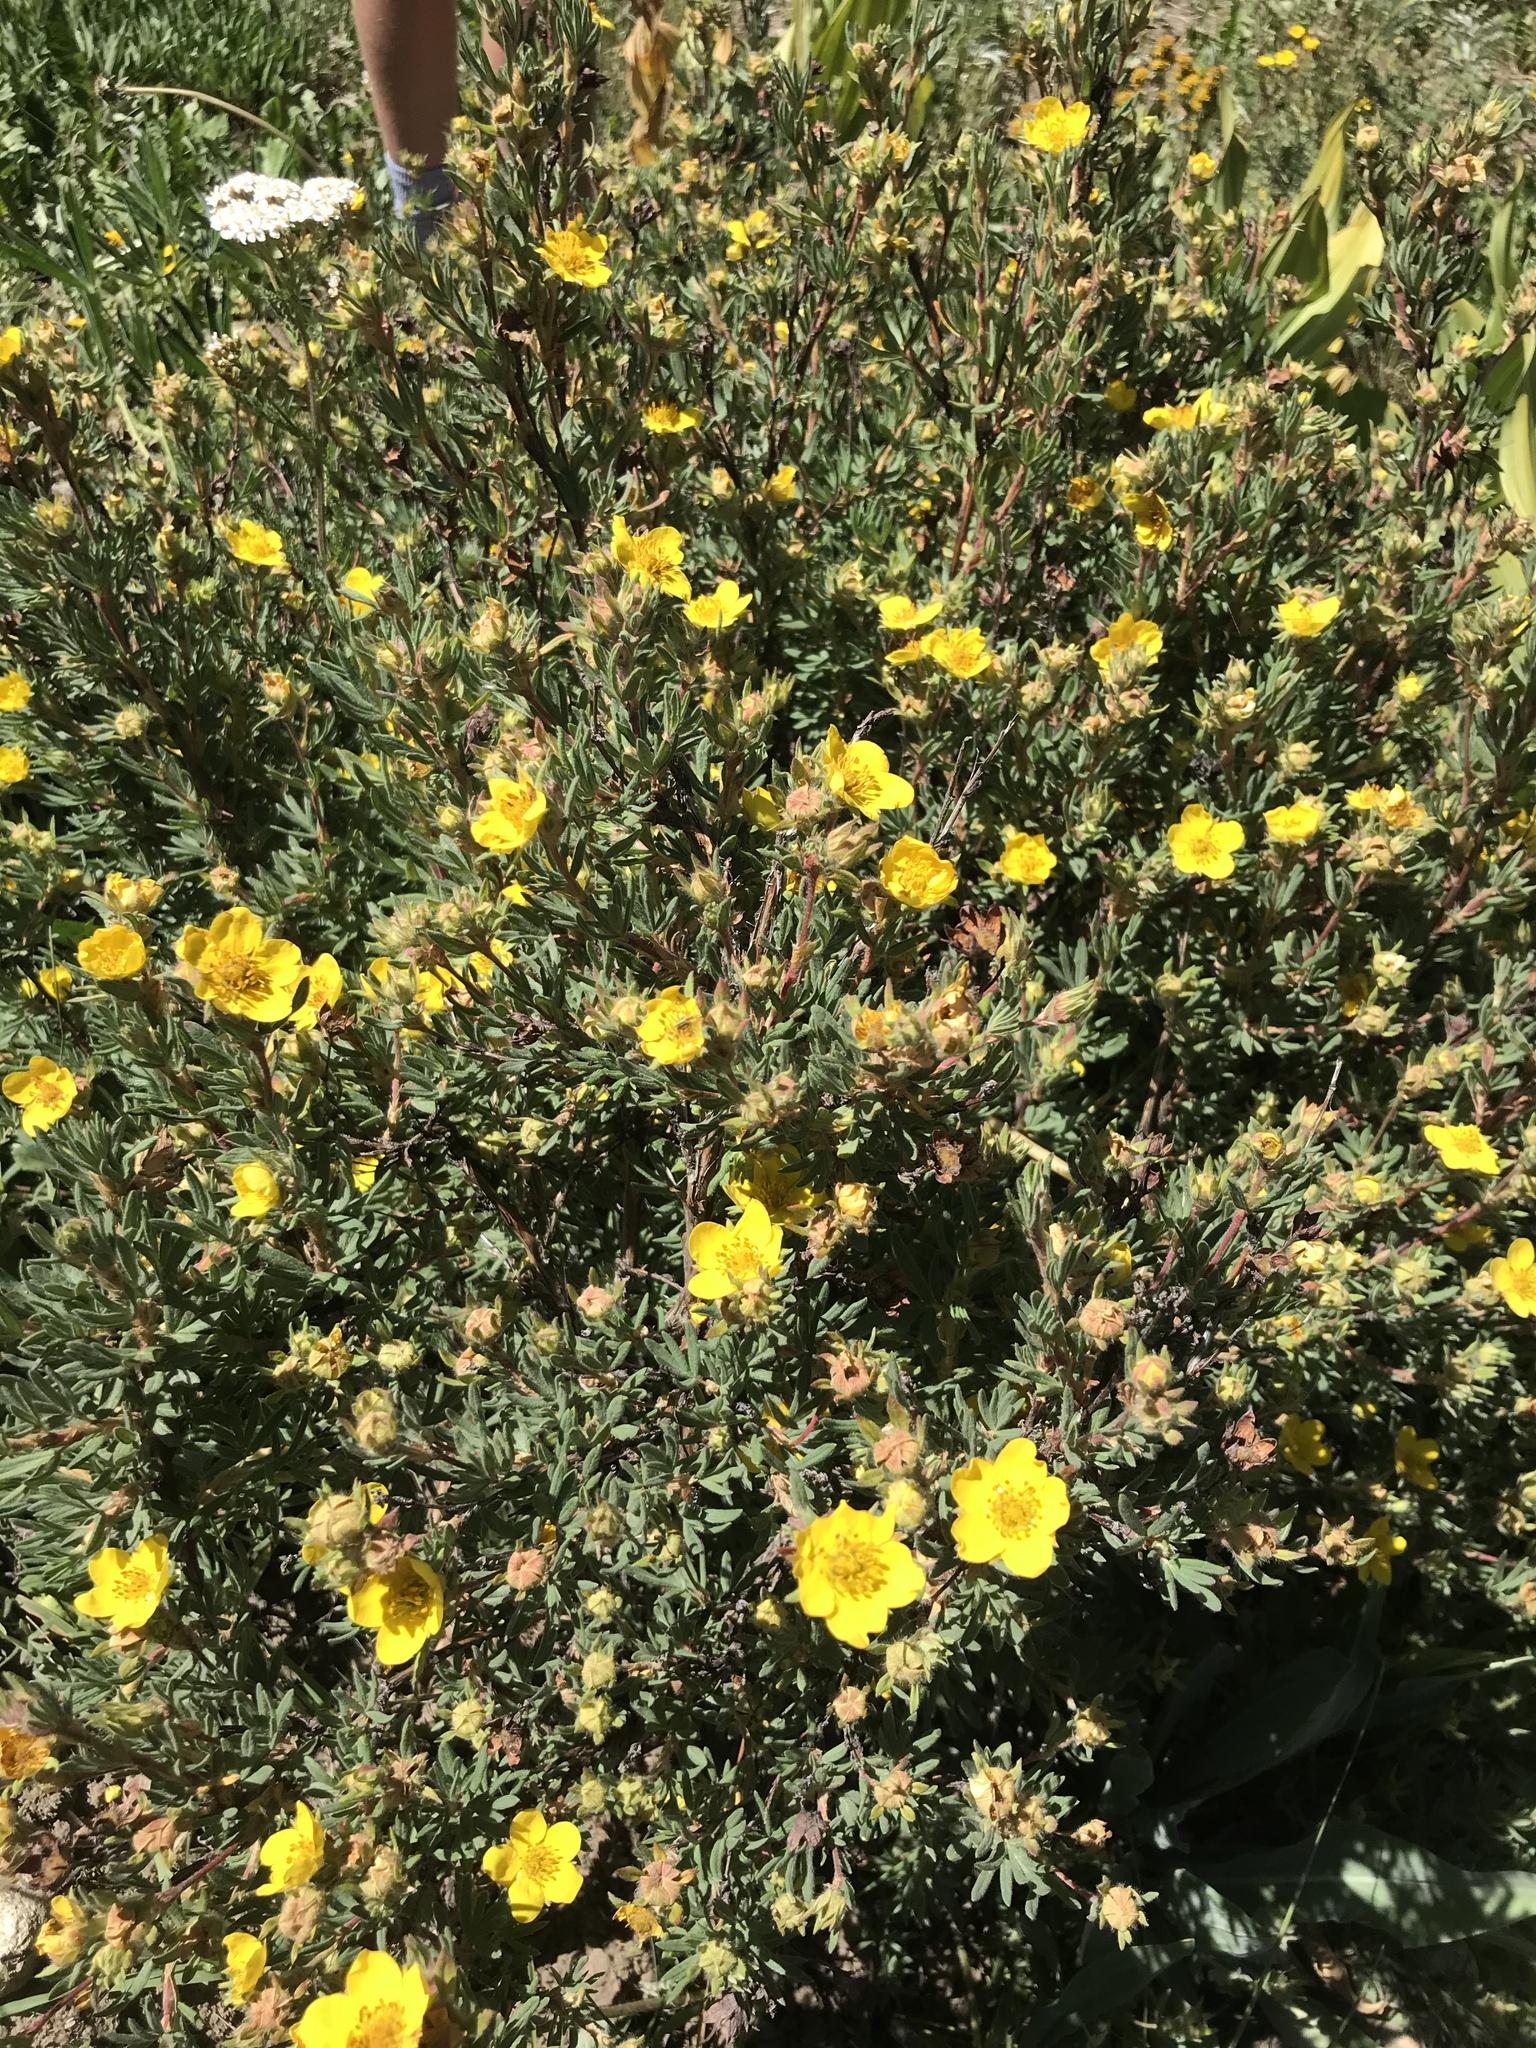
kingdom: Plantae
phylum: Tracheophyta
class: Magnoliopsida
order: Rosales
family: Rosaceae
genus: Dasiphora
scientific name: Dasiphora fruticosa
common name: Shrubby cinquefoil
